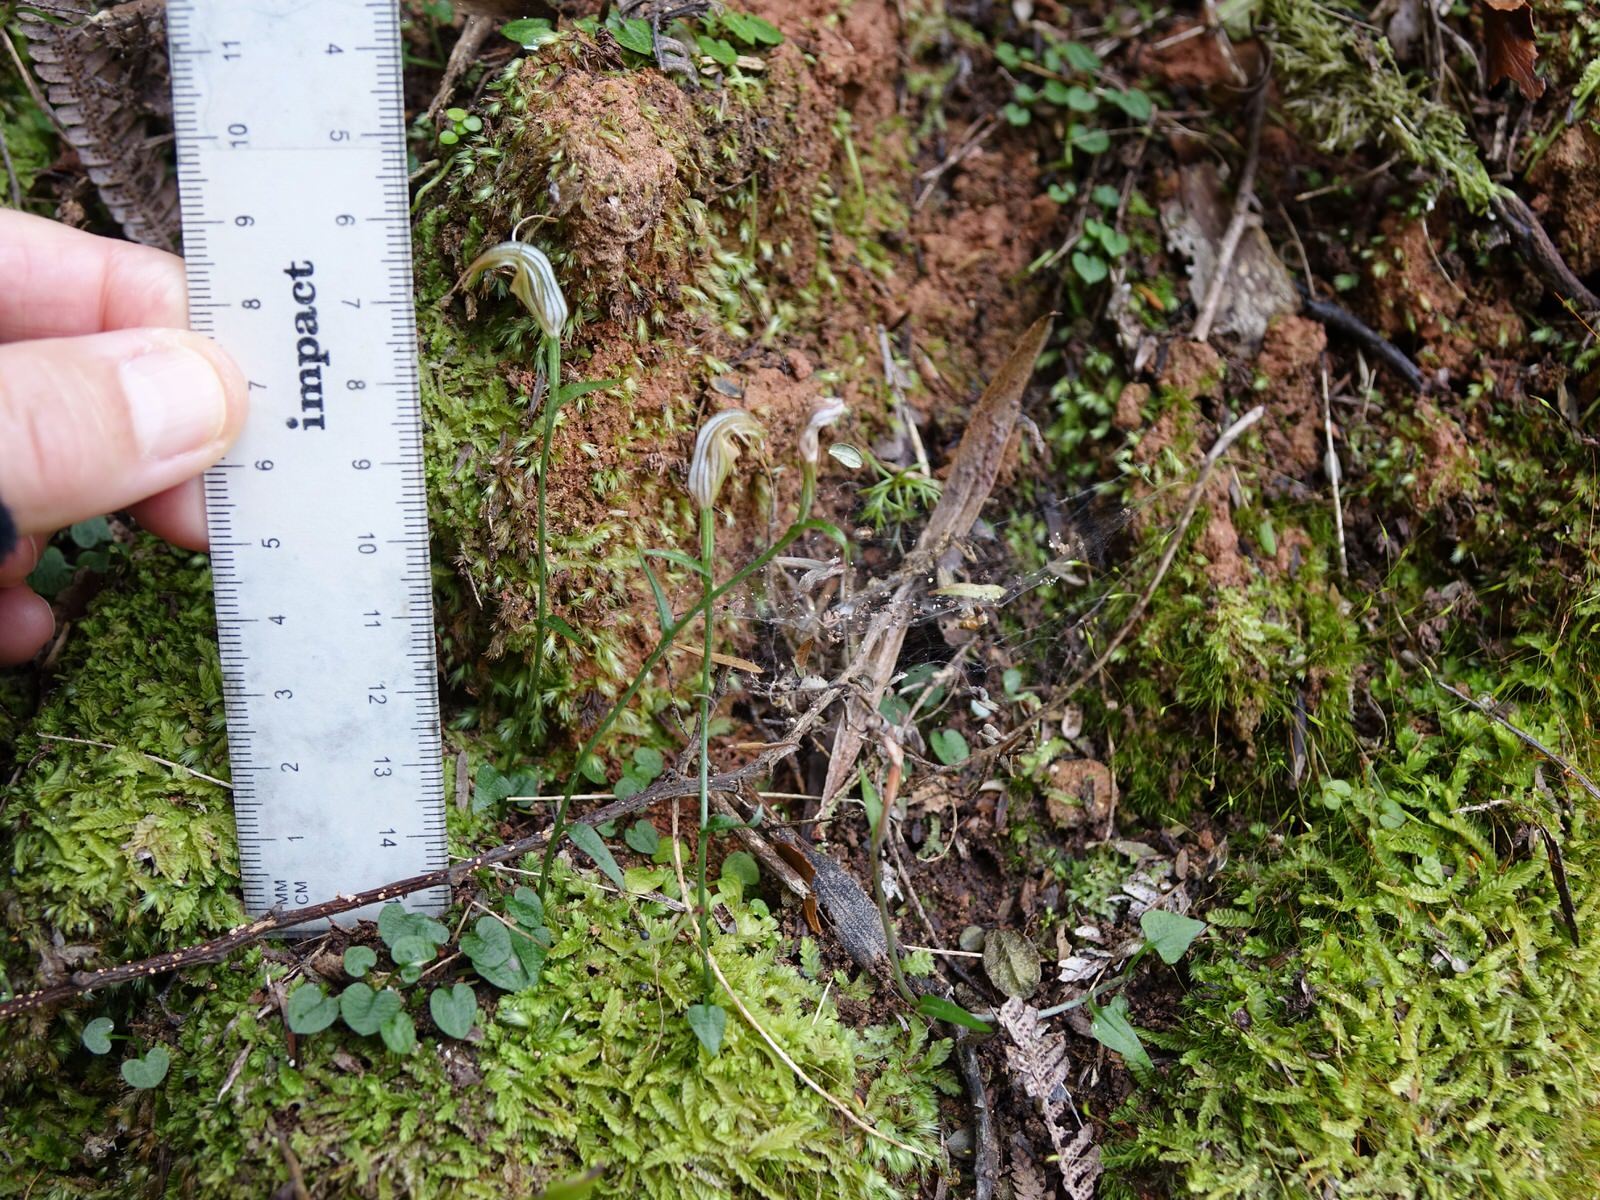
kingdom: Plantae
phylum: Tracheophyta
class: Liliopsida
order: Asparagales
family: Orchidaceae
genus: Pterostylis
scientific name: Pterostylis trullifolia
